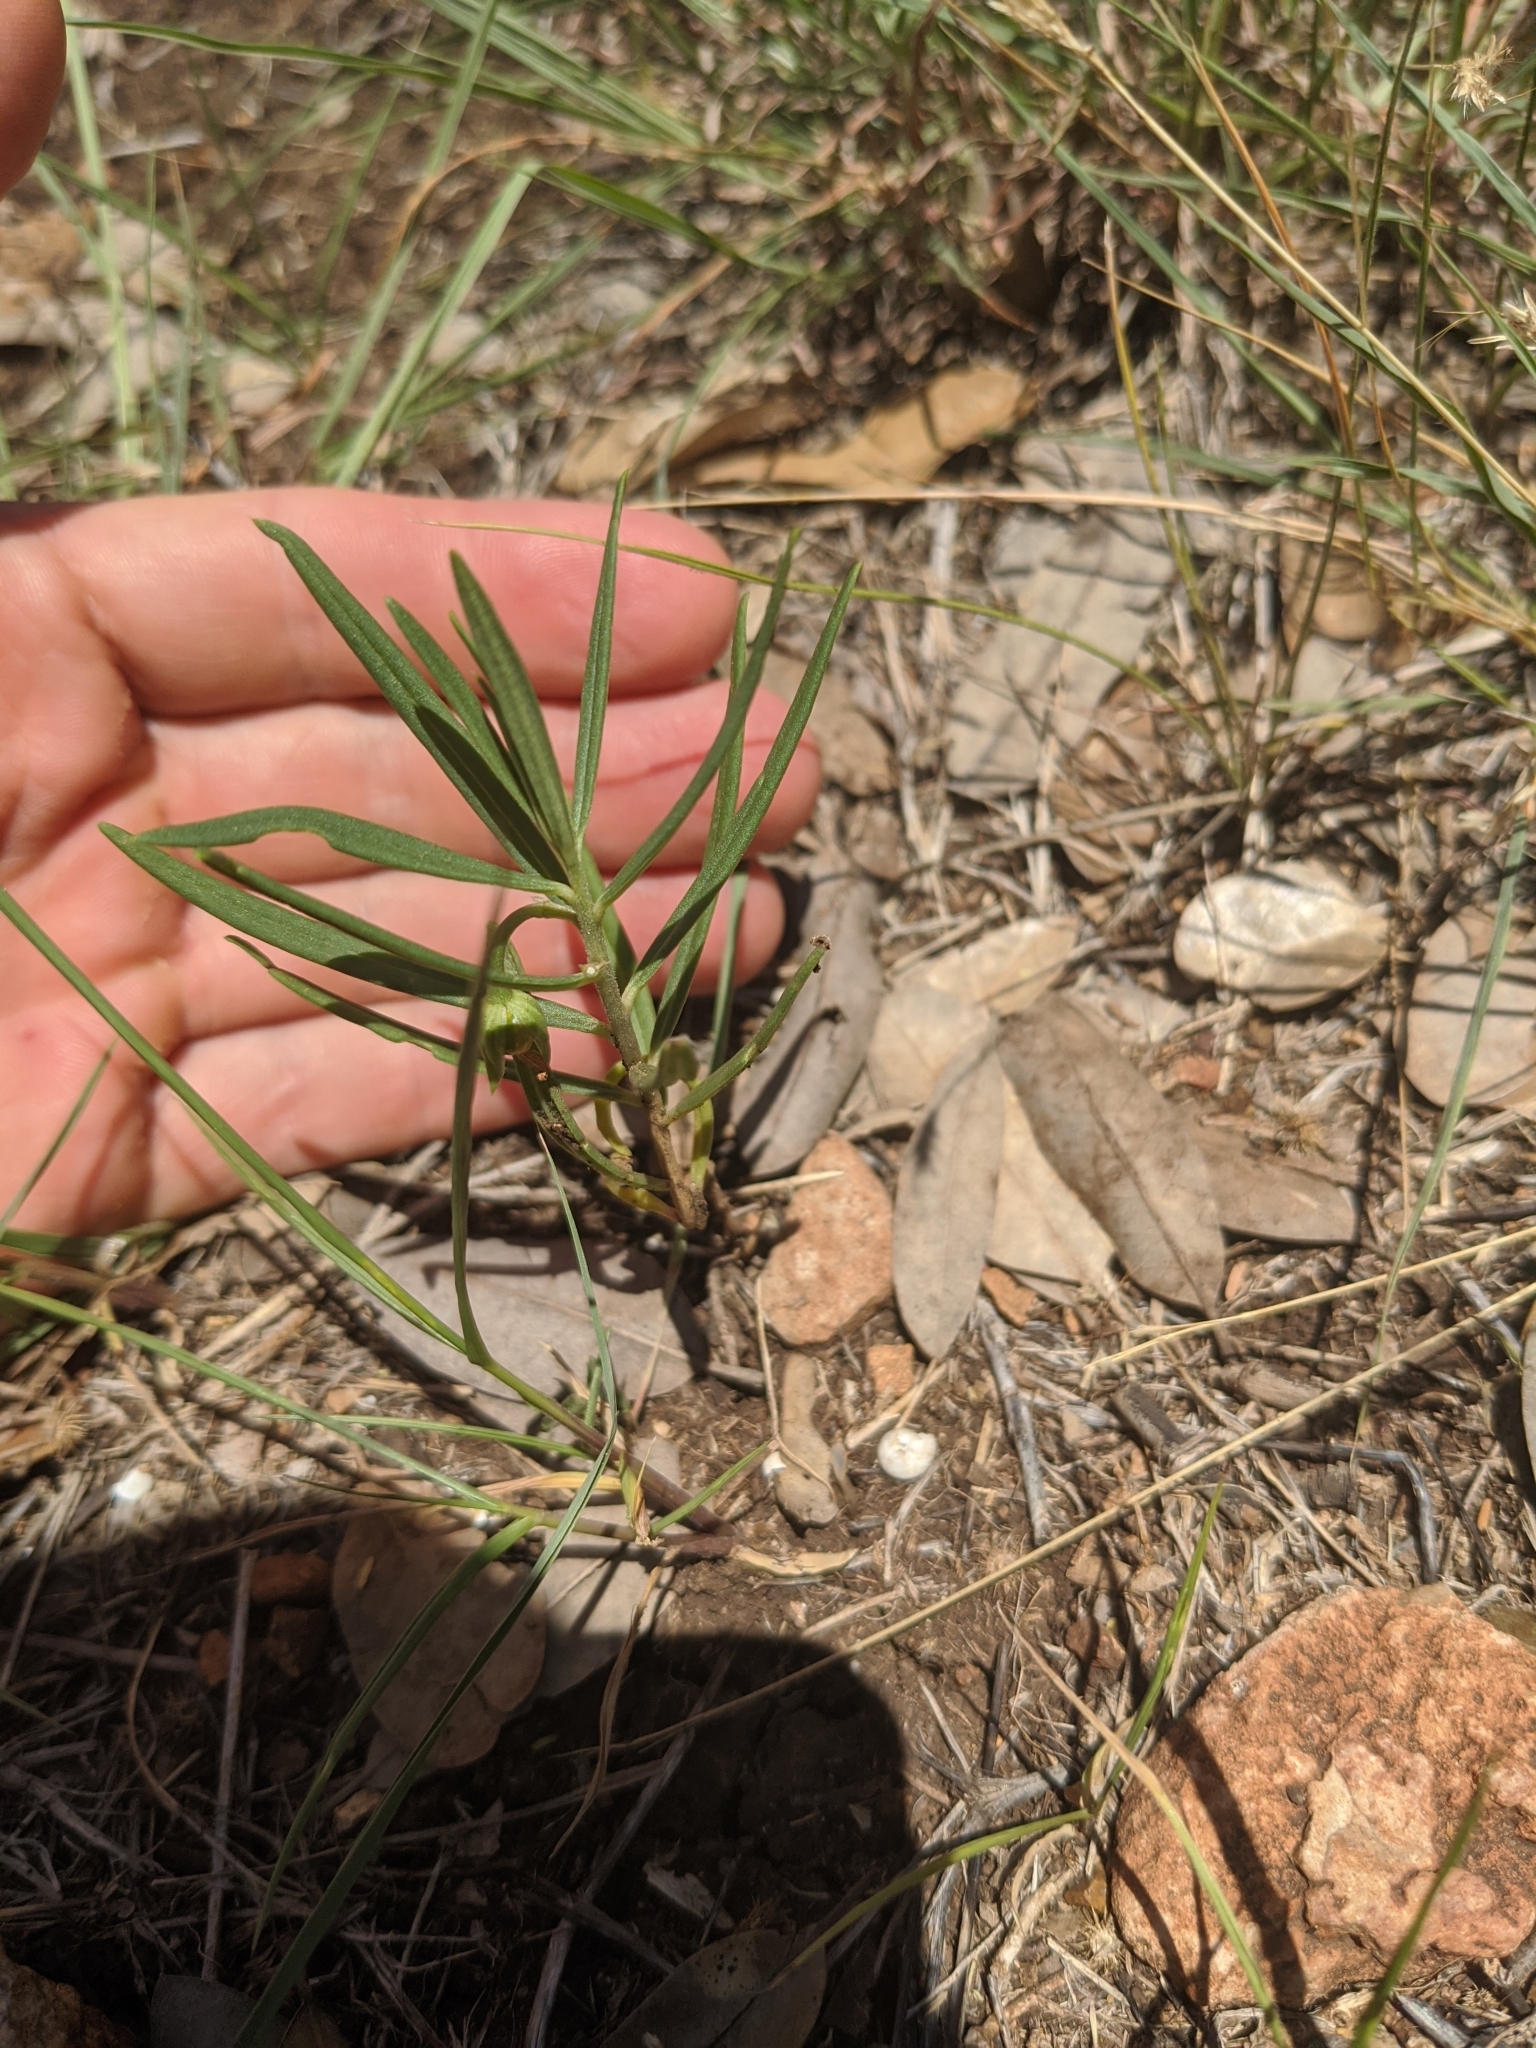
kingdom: Plantae
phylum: Tracheophyta
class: Magnoliopsida
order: Caryophyllales
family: Montiaceae
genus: Phemeranthus
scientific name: Phemeranthus aurantiacus
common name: Orange fameflower
